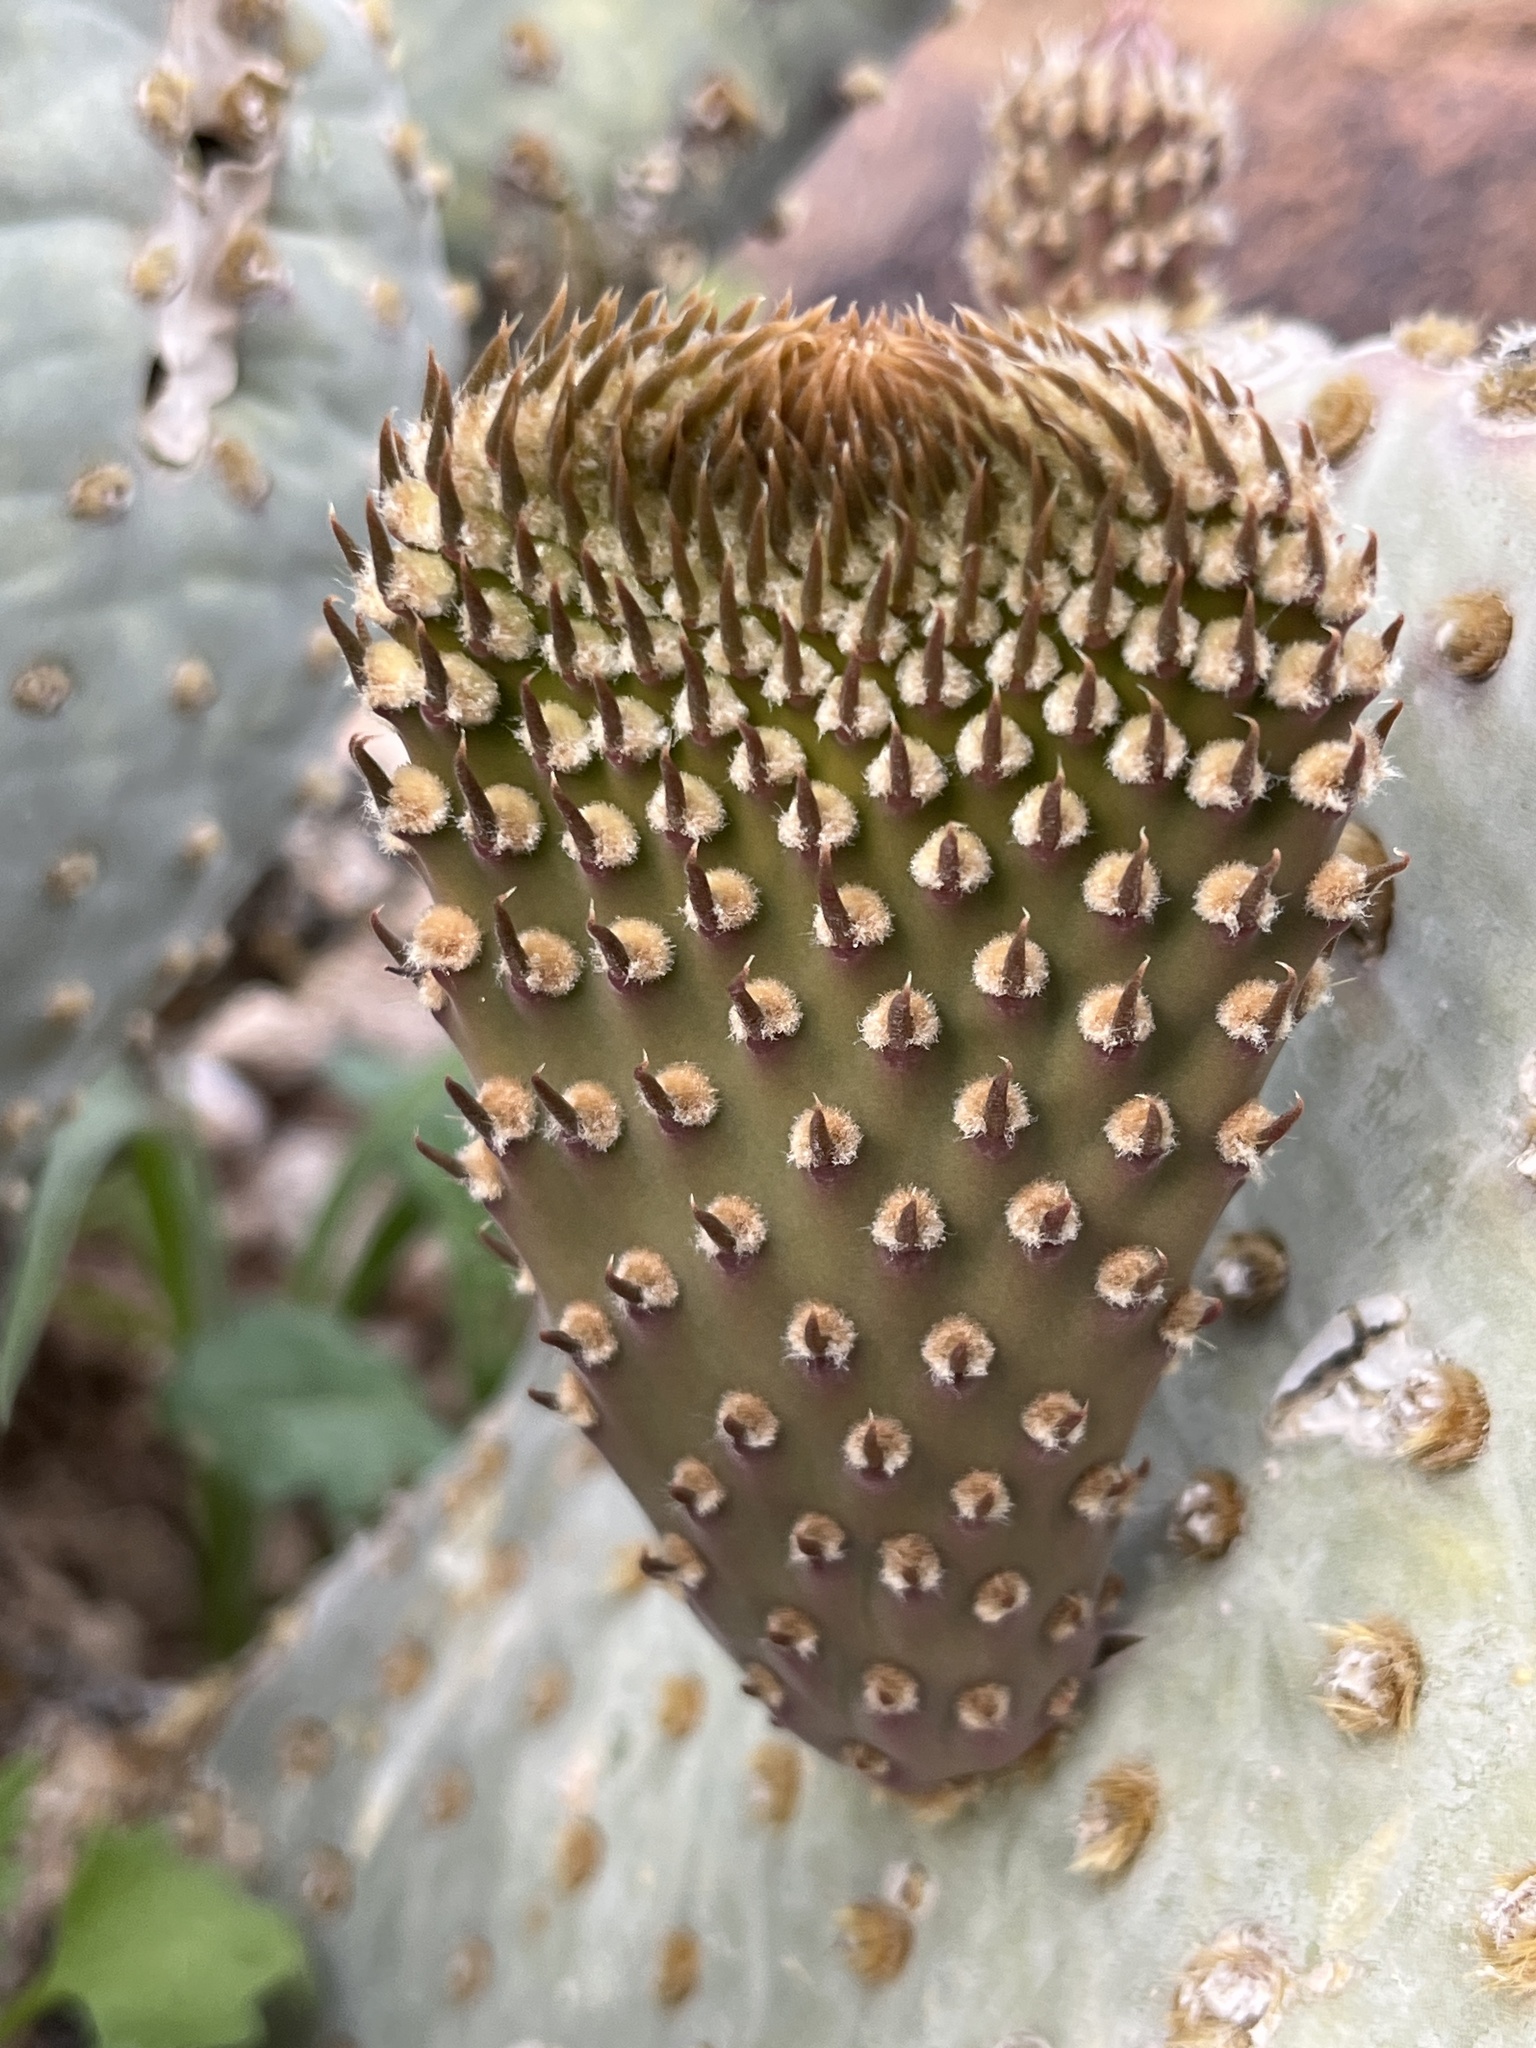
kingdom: Plantae
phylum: Tracheophyta
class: Magnoliopsida
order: Caryophyllales
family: Cactaceae
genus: Opuntia
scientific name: Opuntia basilaris
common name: Beavertail prickly-pear
